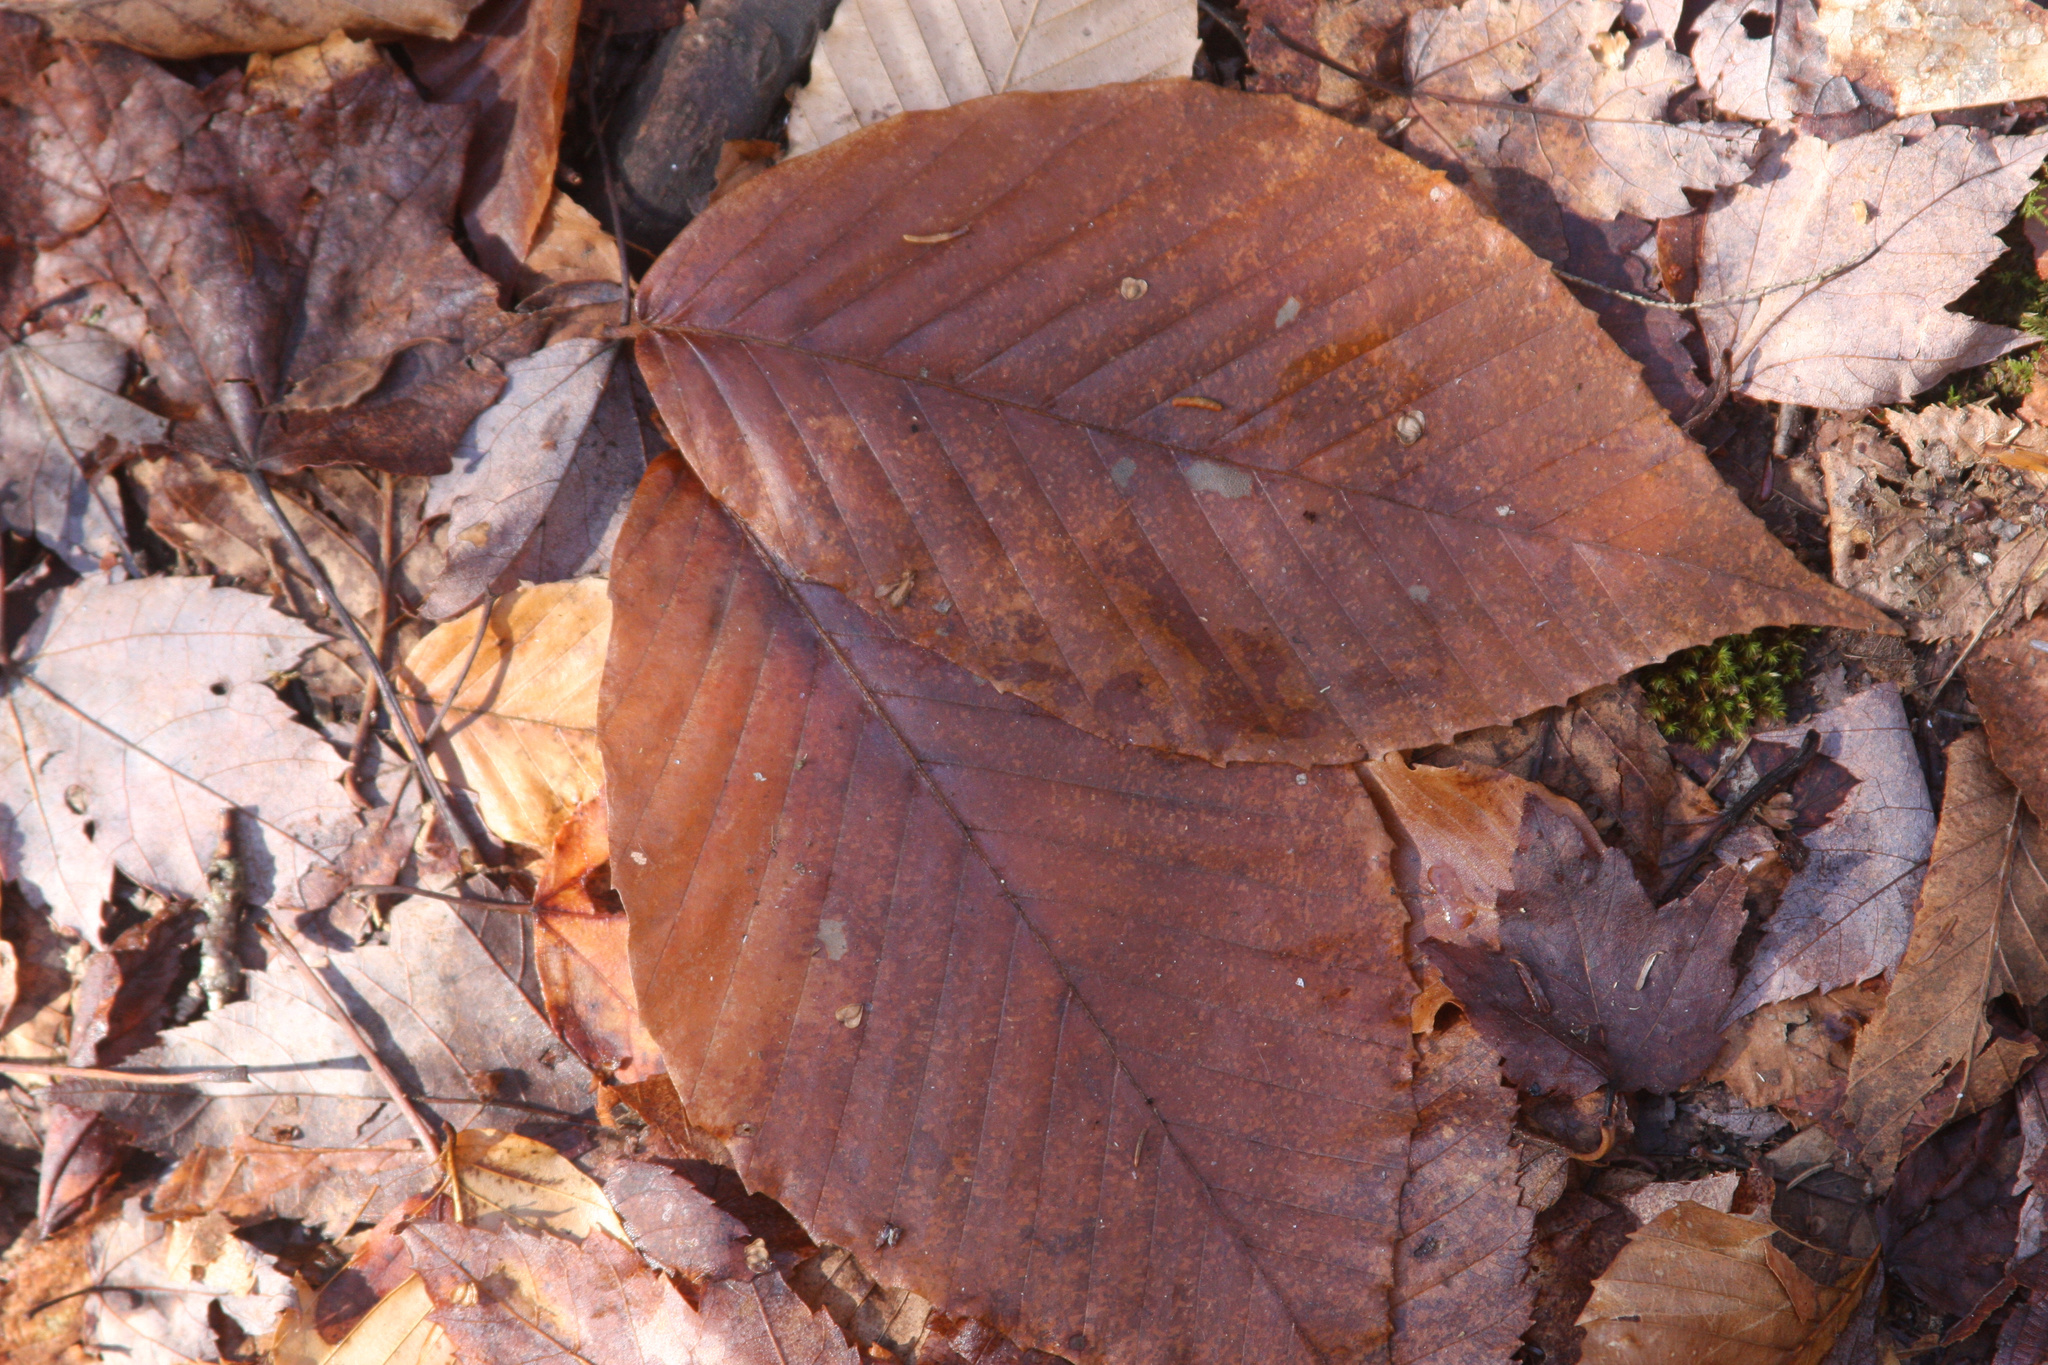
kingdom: Plantae
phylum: Tracheophyta
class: Magnoliopsida
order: Fagales
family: Fagaceae
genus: Fagus
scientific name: Fagus grandifolia
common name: American beech
